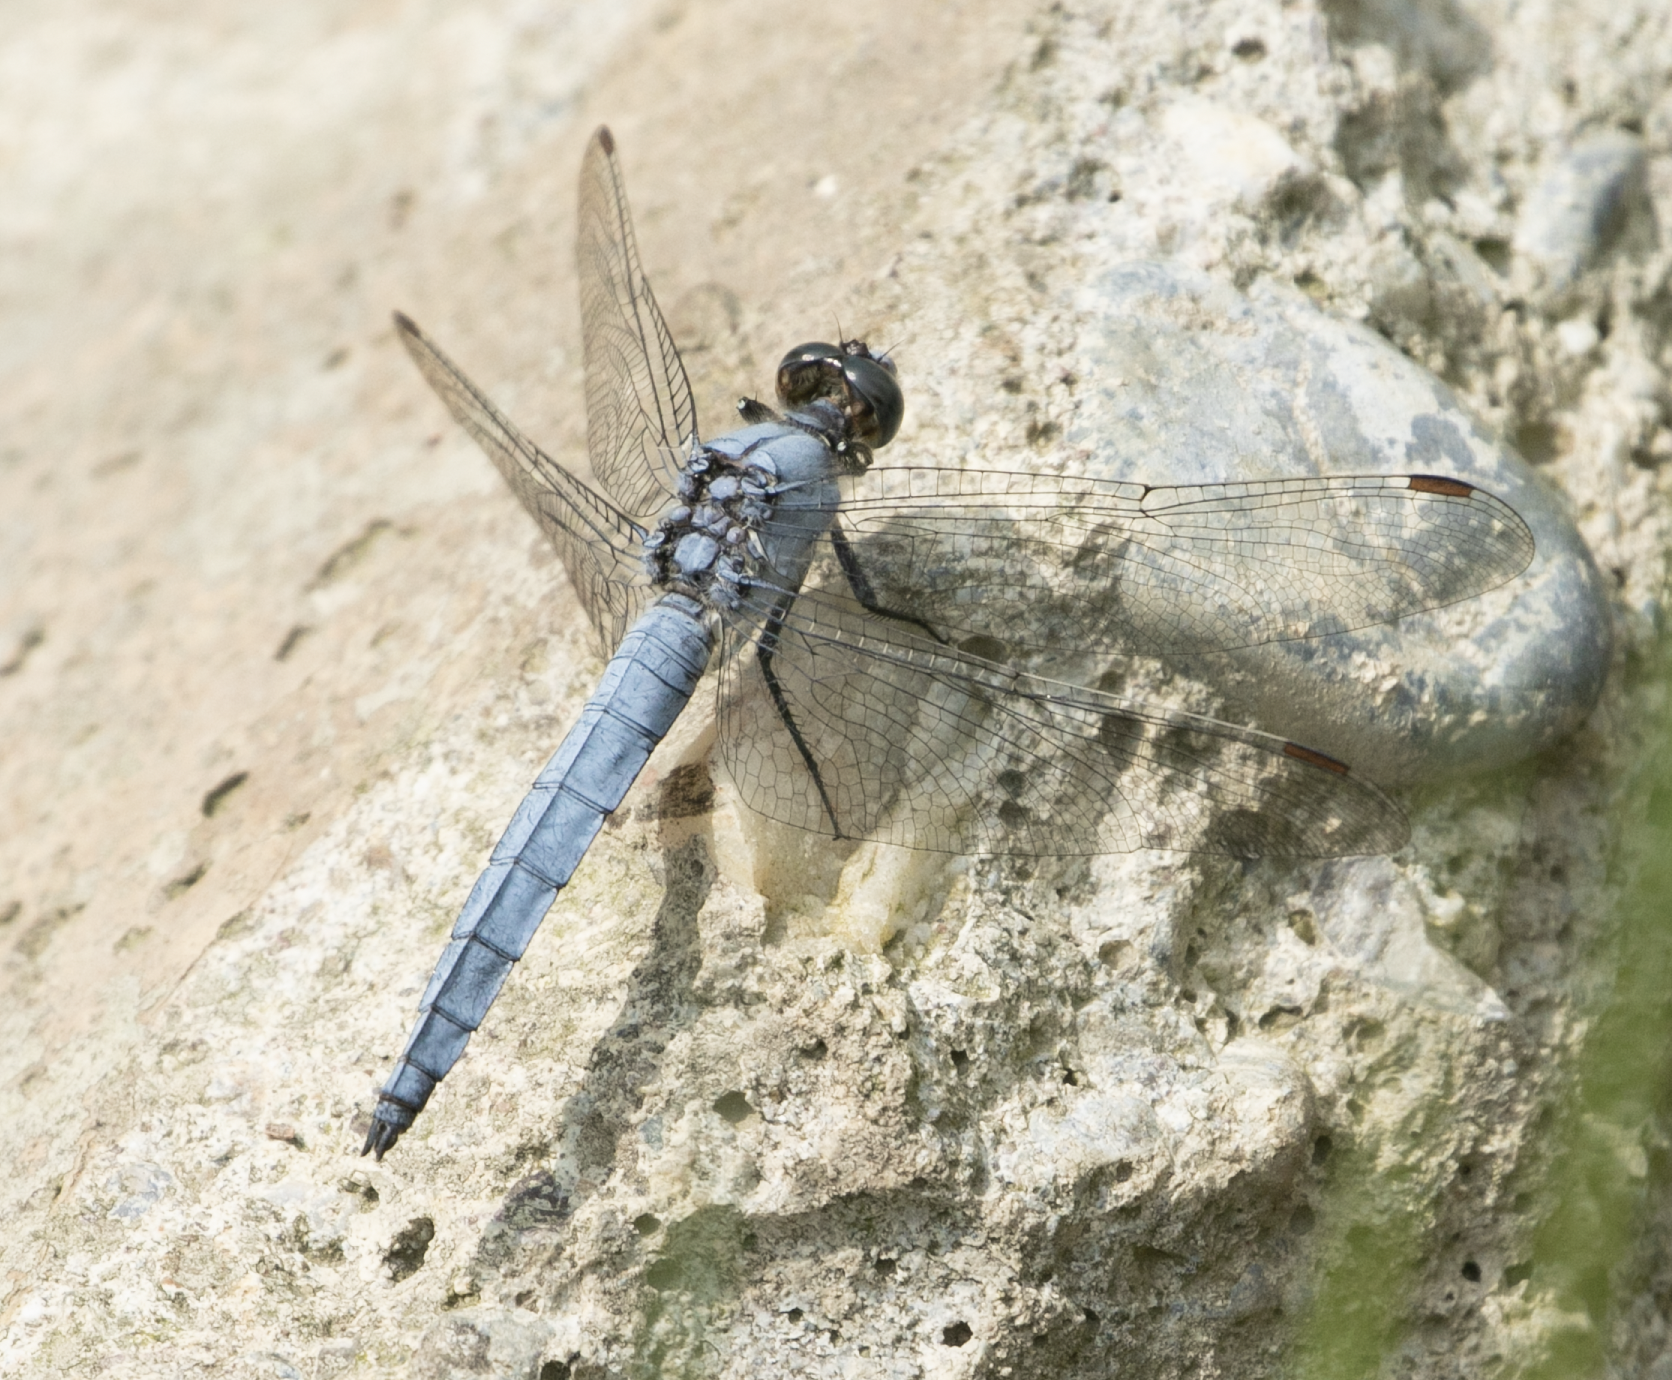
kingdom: Animalia
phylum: Arthropoda
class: Insecta
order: Odonata
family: Libellulidae
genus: Orthetrum
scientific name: Orthetrum brunneum
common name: Southern skimmer
